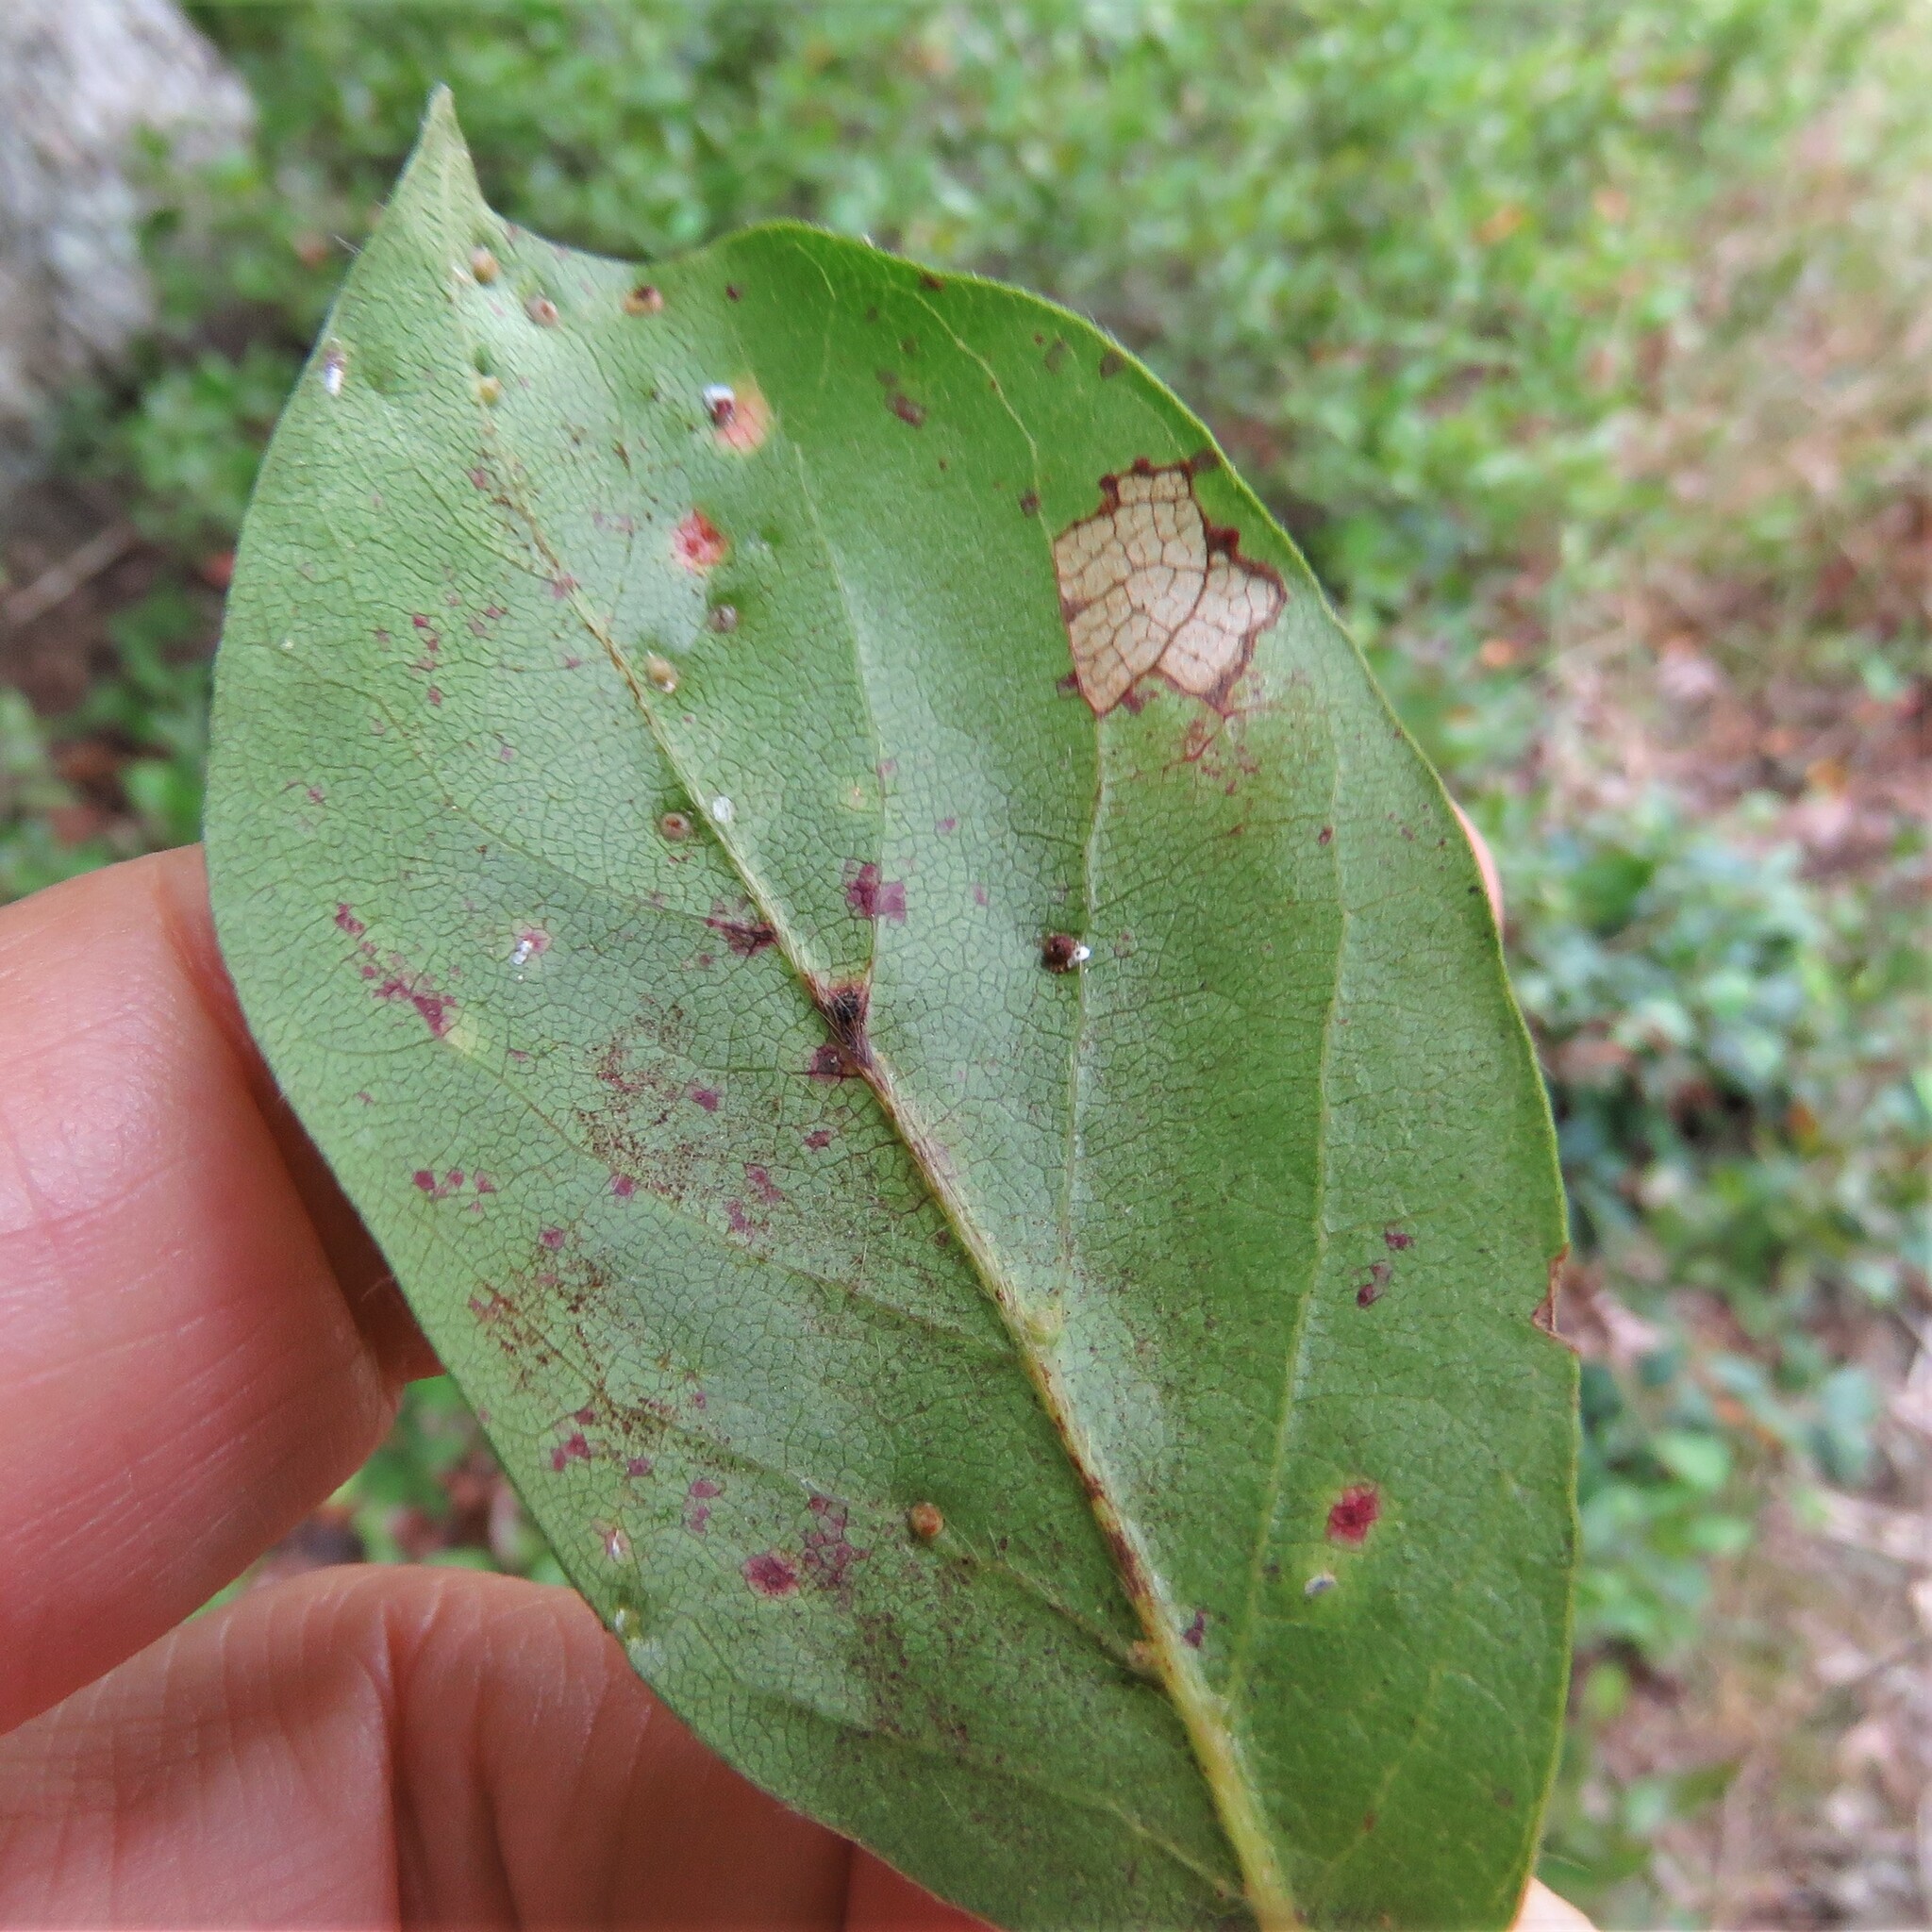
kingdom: Animalia
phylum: Arthropoda
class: Arachnida
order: Trombidiformes
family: Eriophyidae
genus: Aceria
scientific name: Aceria
